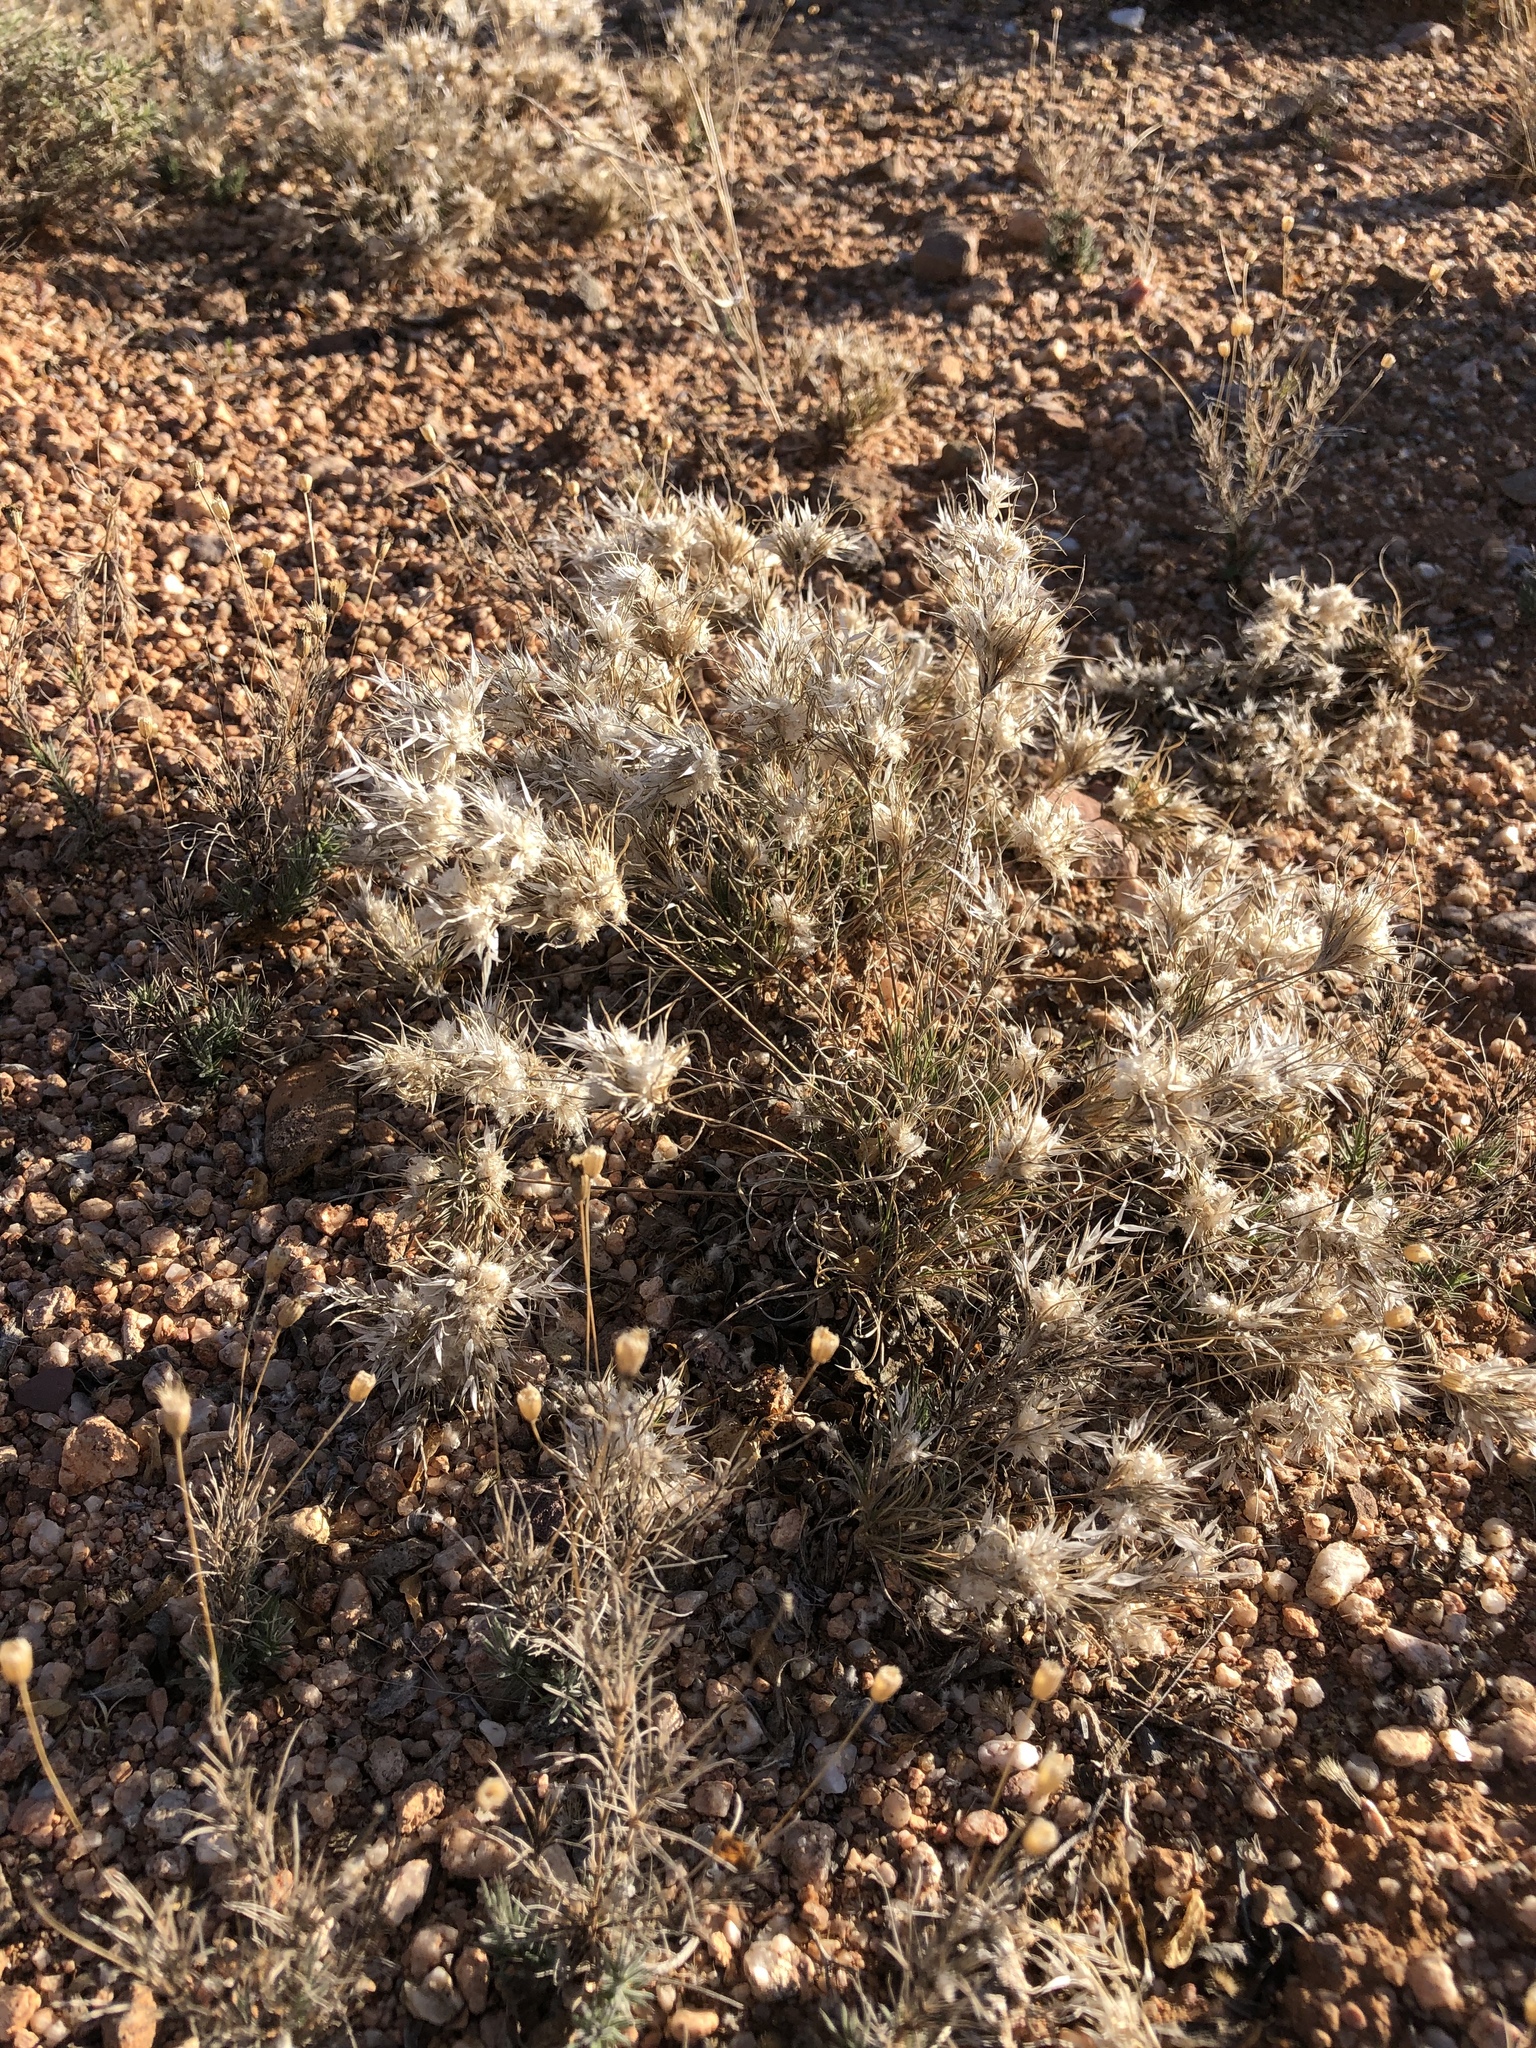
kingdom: Plantae
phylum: Tracheophyta
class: Liliopsida
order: Poales
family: Poaceae
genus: Dasyochloa
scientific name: Dasyochloa pulchella
